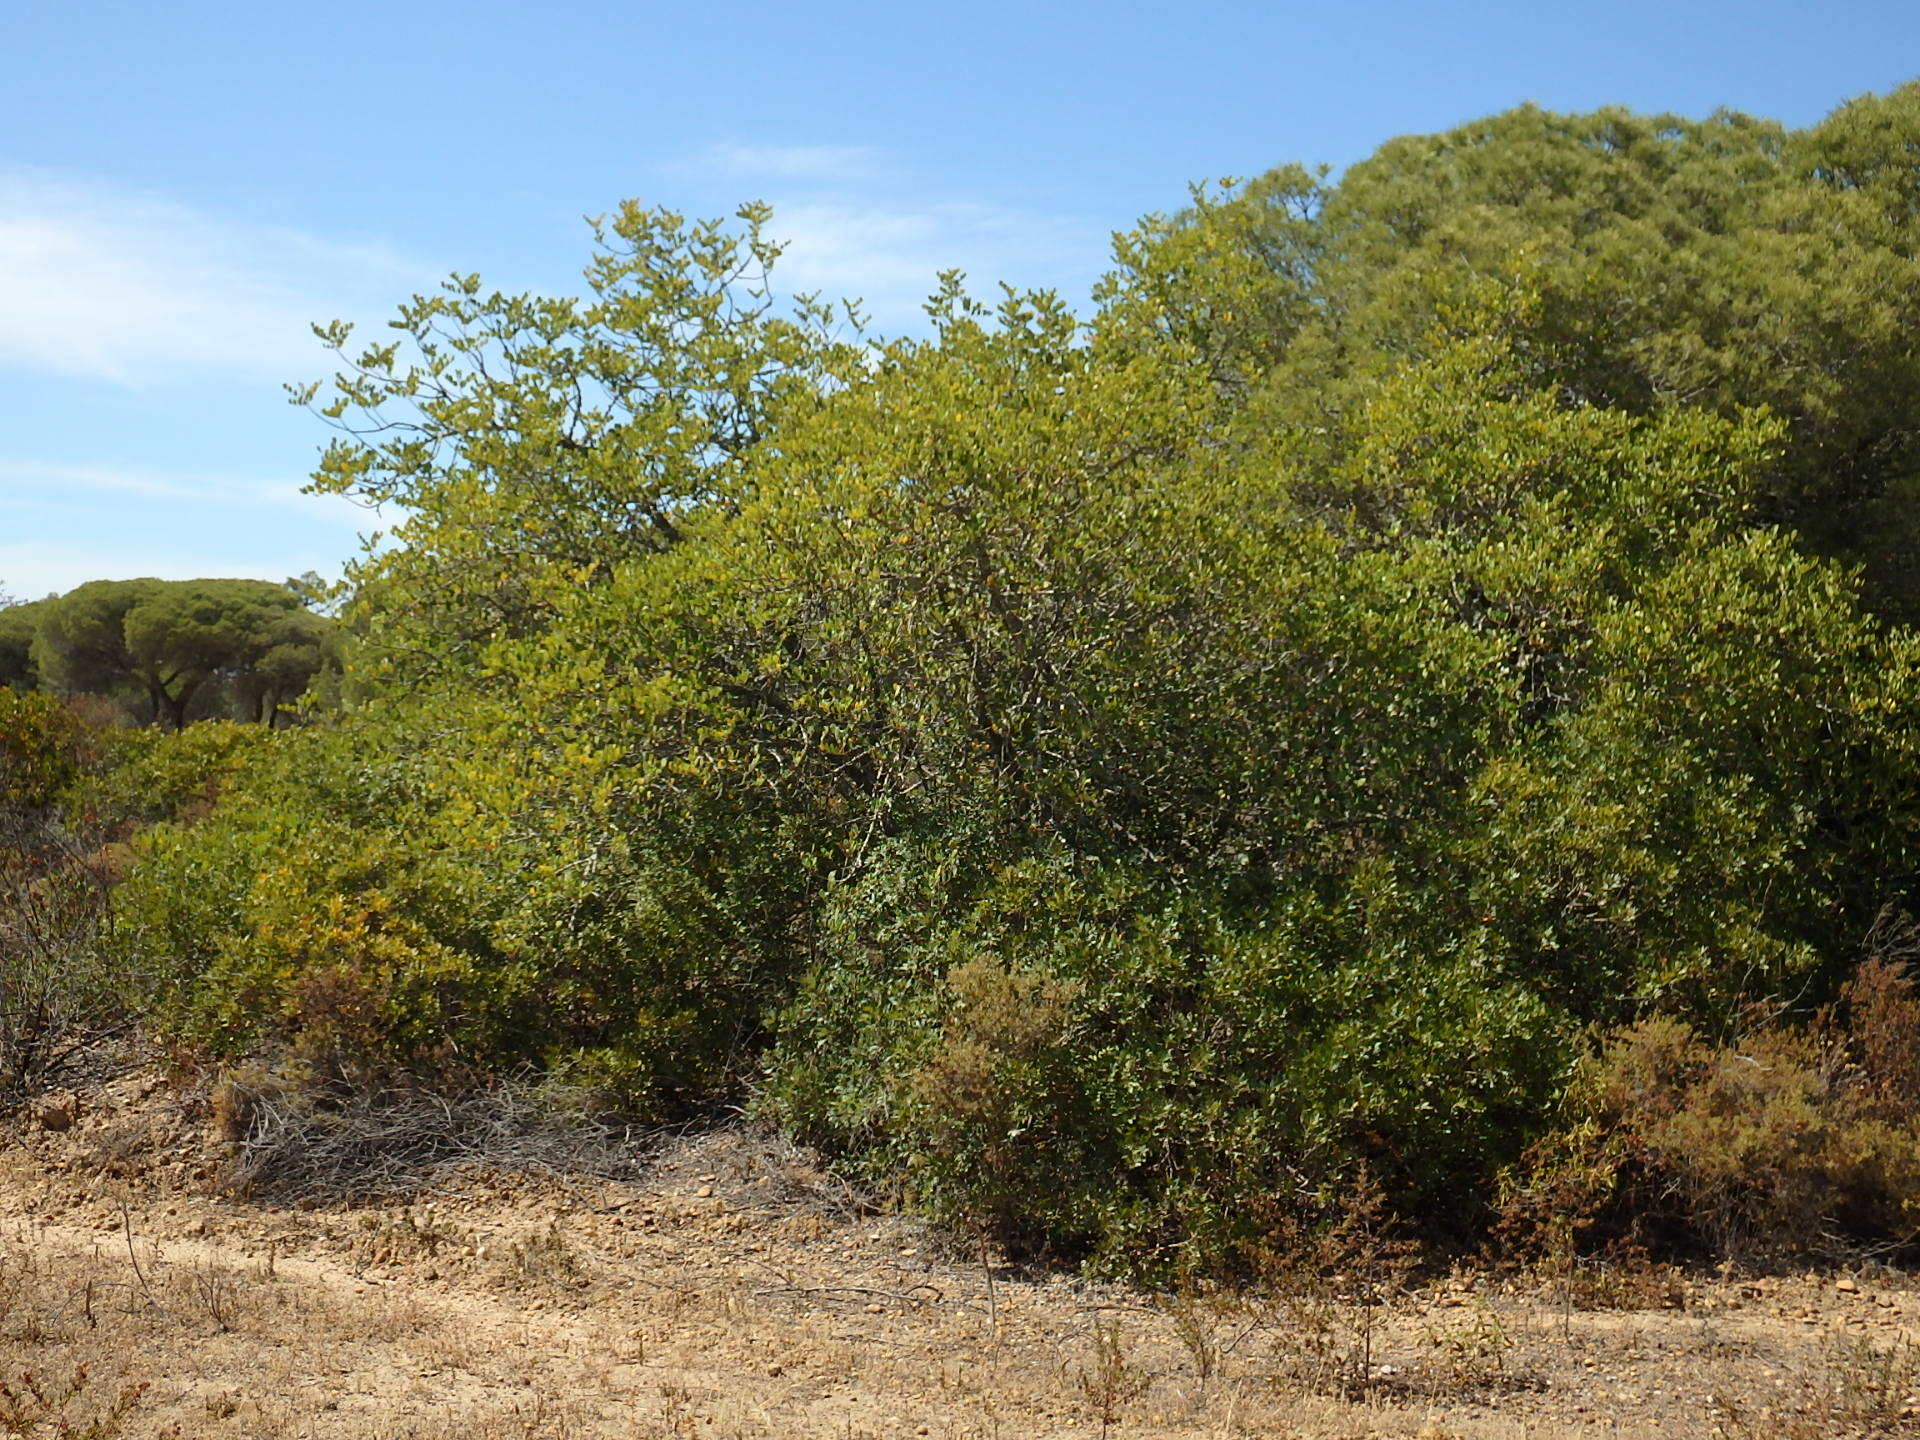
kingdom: Plantae
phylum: Tracheophyta
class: Magnoliopsida
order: Fabales
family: Fabaceae
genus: Ceratonia
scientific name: Ceratonia siliqua
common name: Carob
